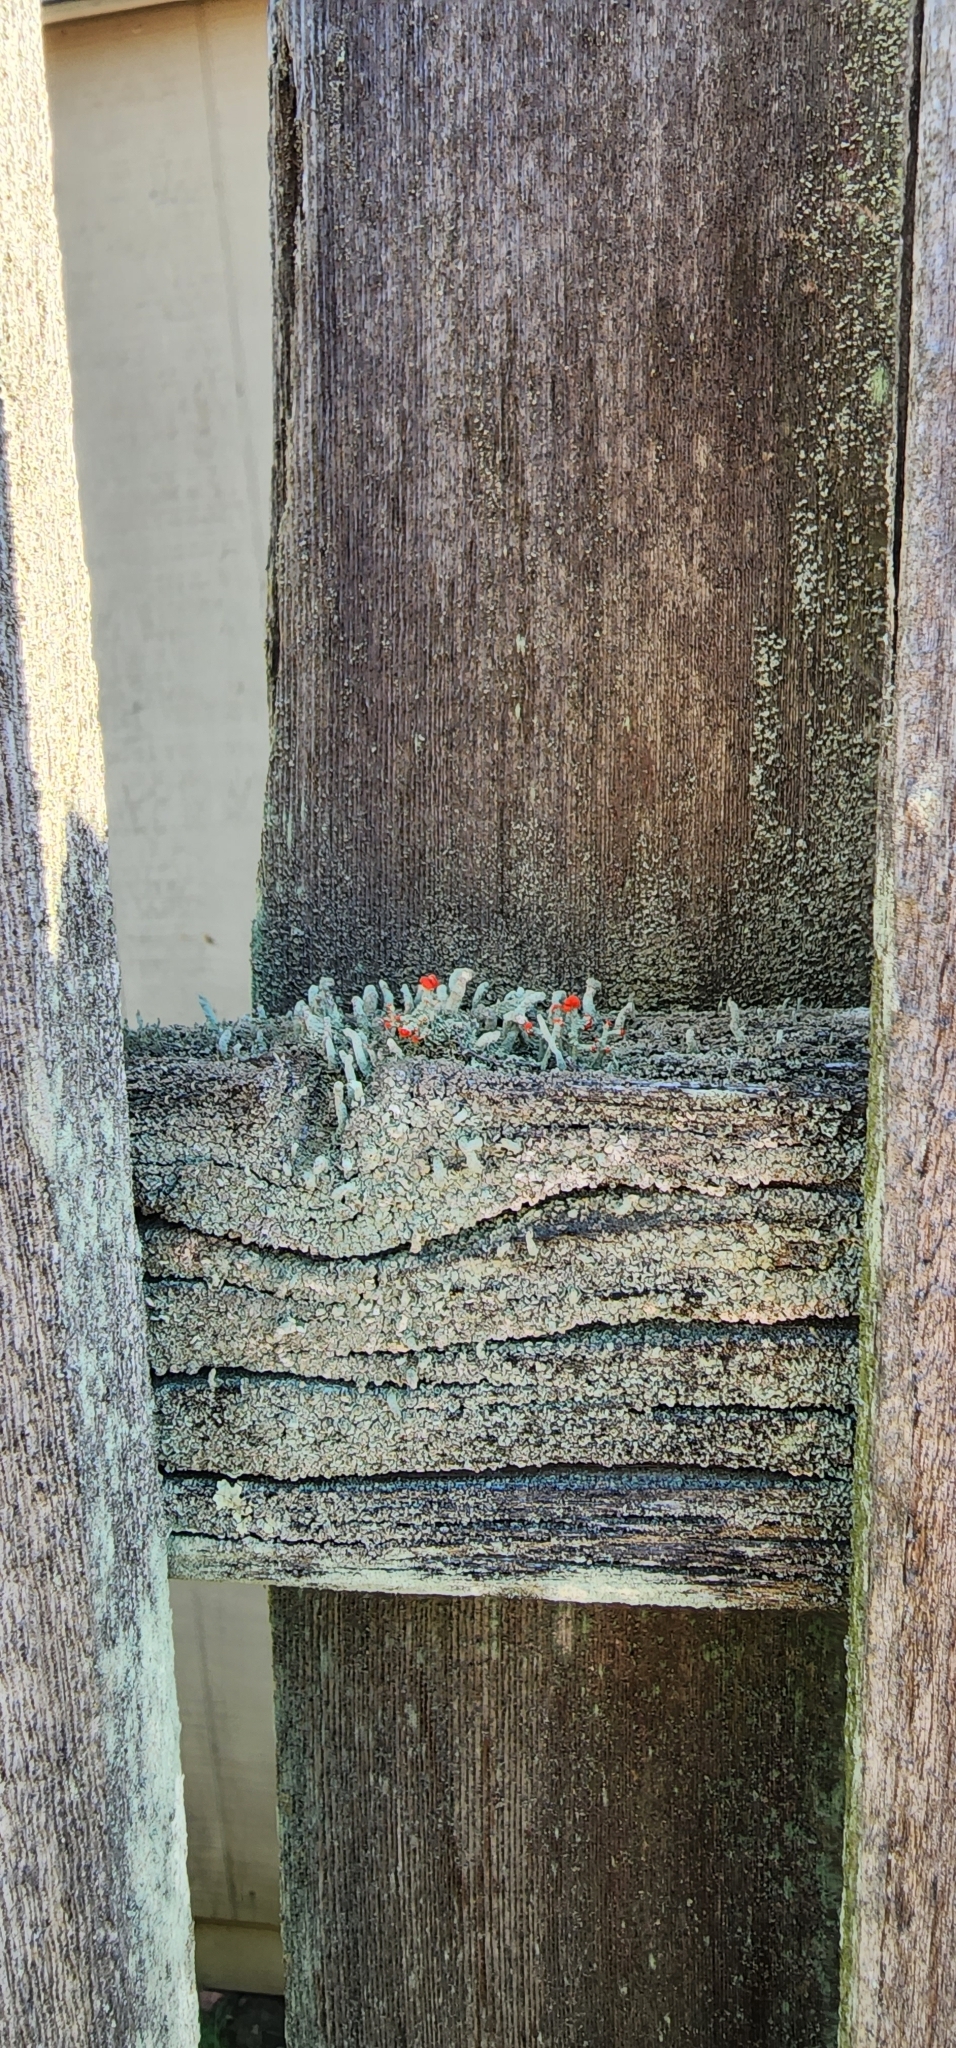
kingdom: Fungi
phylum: Ascomycota
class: Lecanoromycetes
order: Lecanorales
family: Cladoniaceae
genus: Cladonia
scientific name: Cladonia cristatella
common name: British soldier lichen
